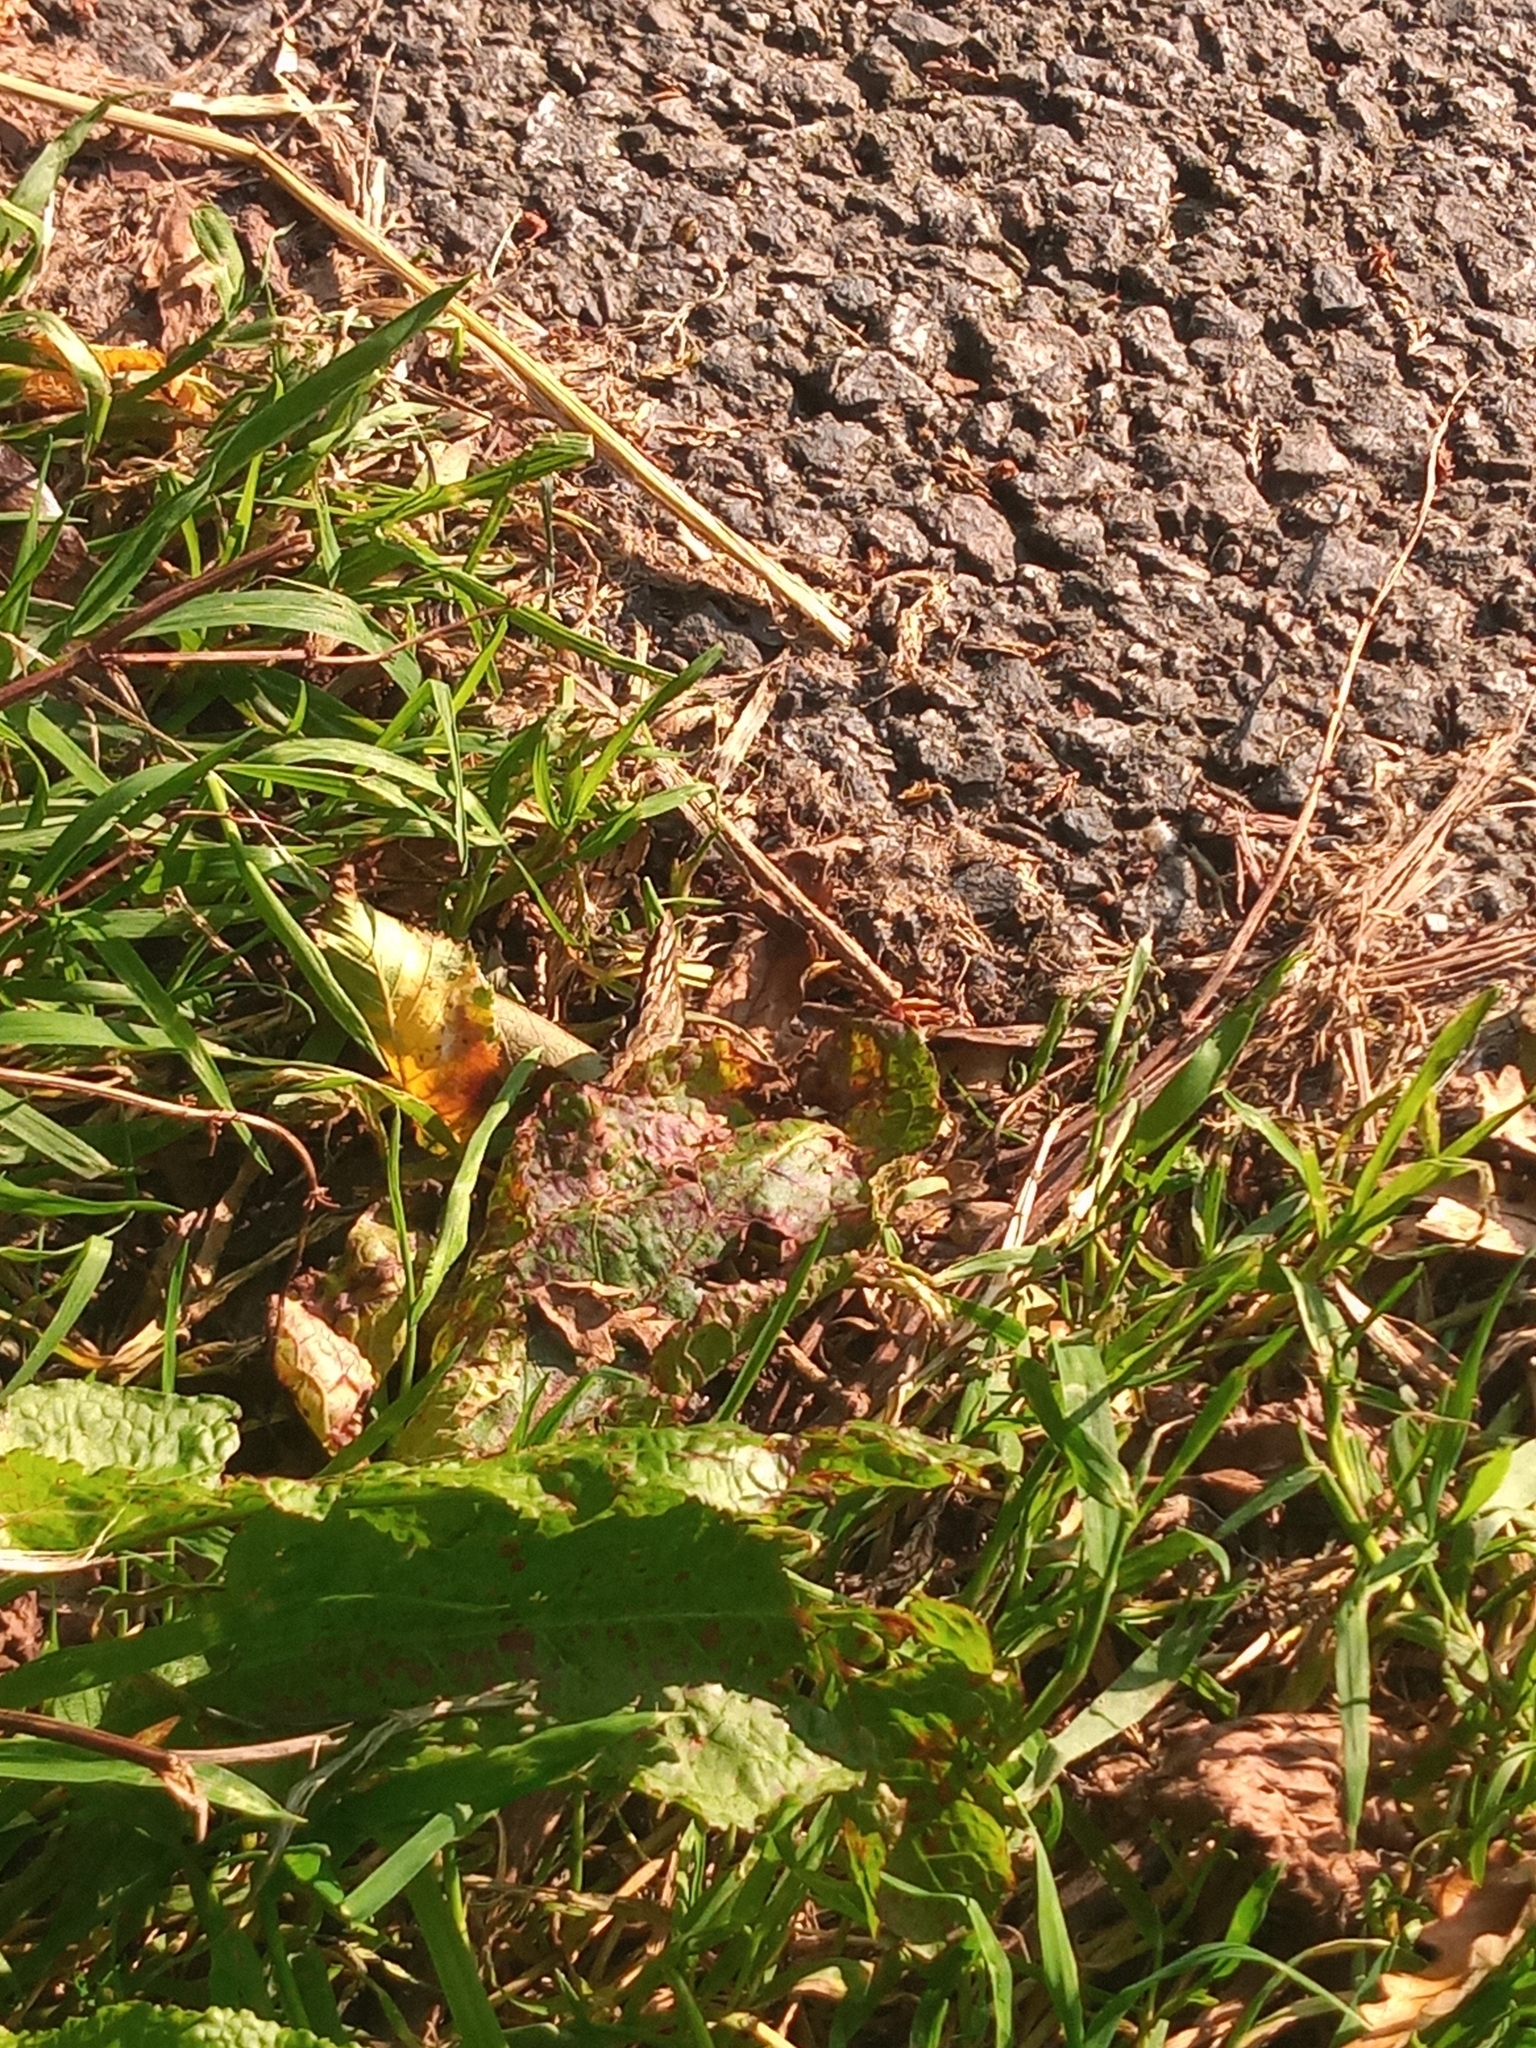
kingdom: Animalia
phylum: Arthropoda
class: Insecta
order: Lepidoptera
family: Nymphalidae
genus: Pararge
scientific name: Pararge aegeria
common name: Speckled wood
